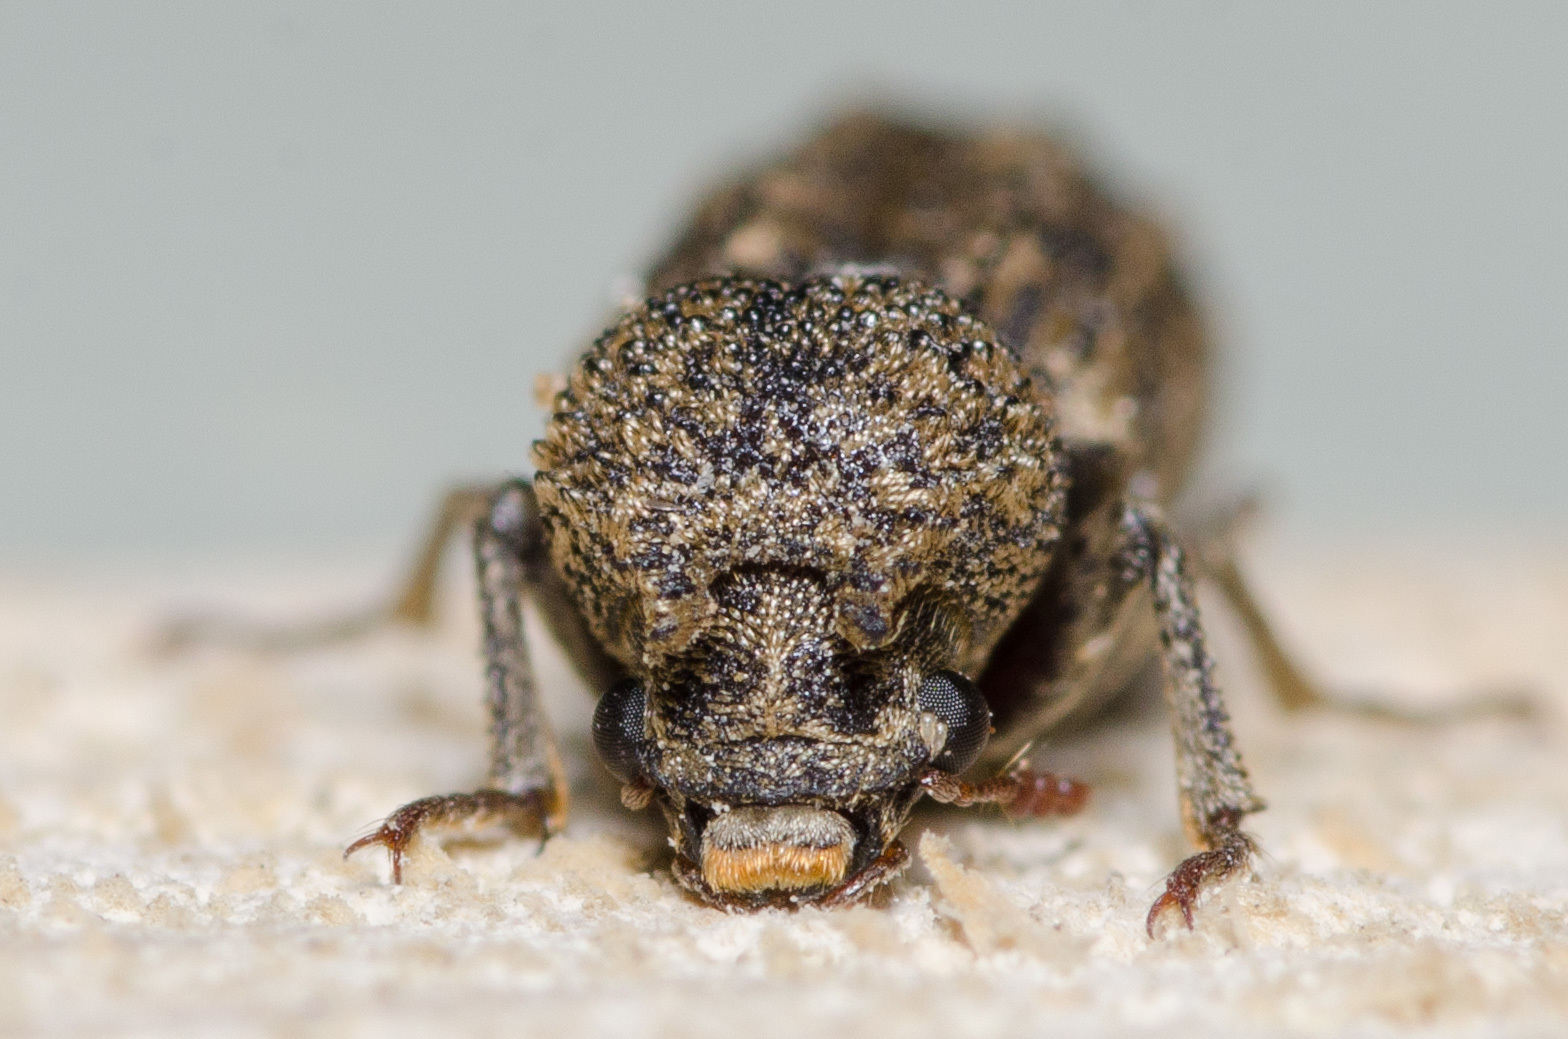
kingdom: Animalia
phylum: Arthropoda
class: Insecta
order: Coleoptera
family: Bostrichidae
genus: Lichenophanes
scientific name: Lichenophanes bicornis
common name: Two-horned powder-post beetle
